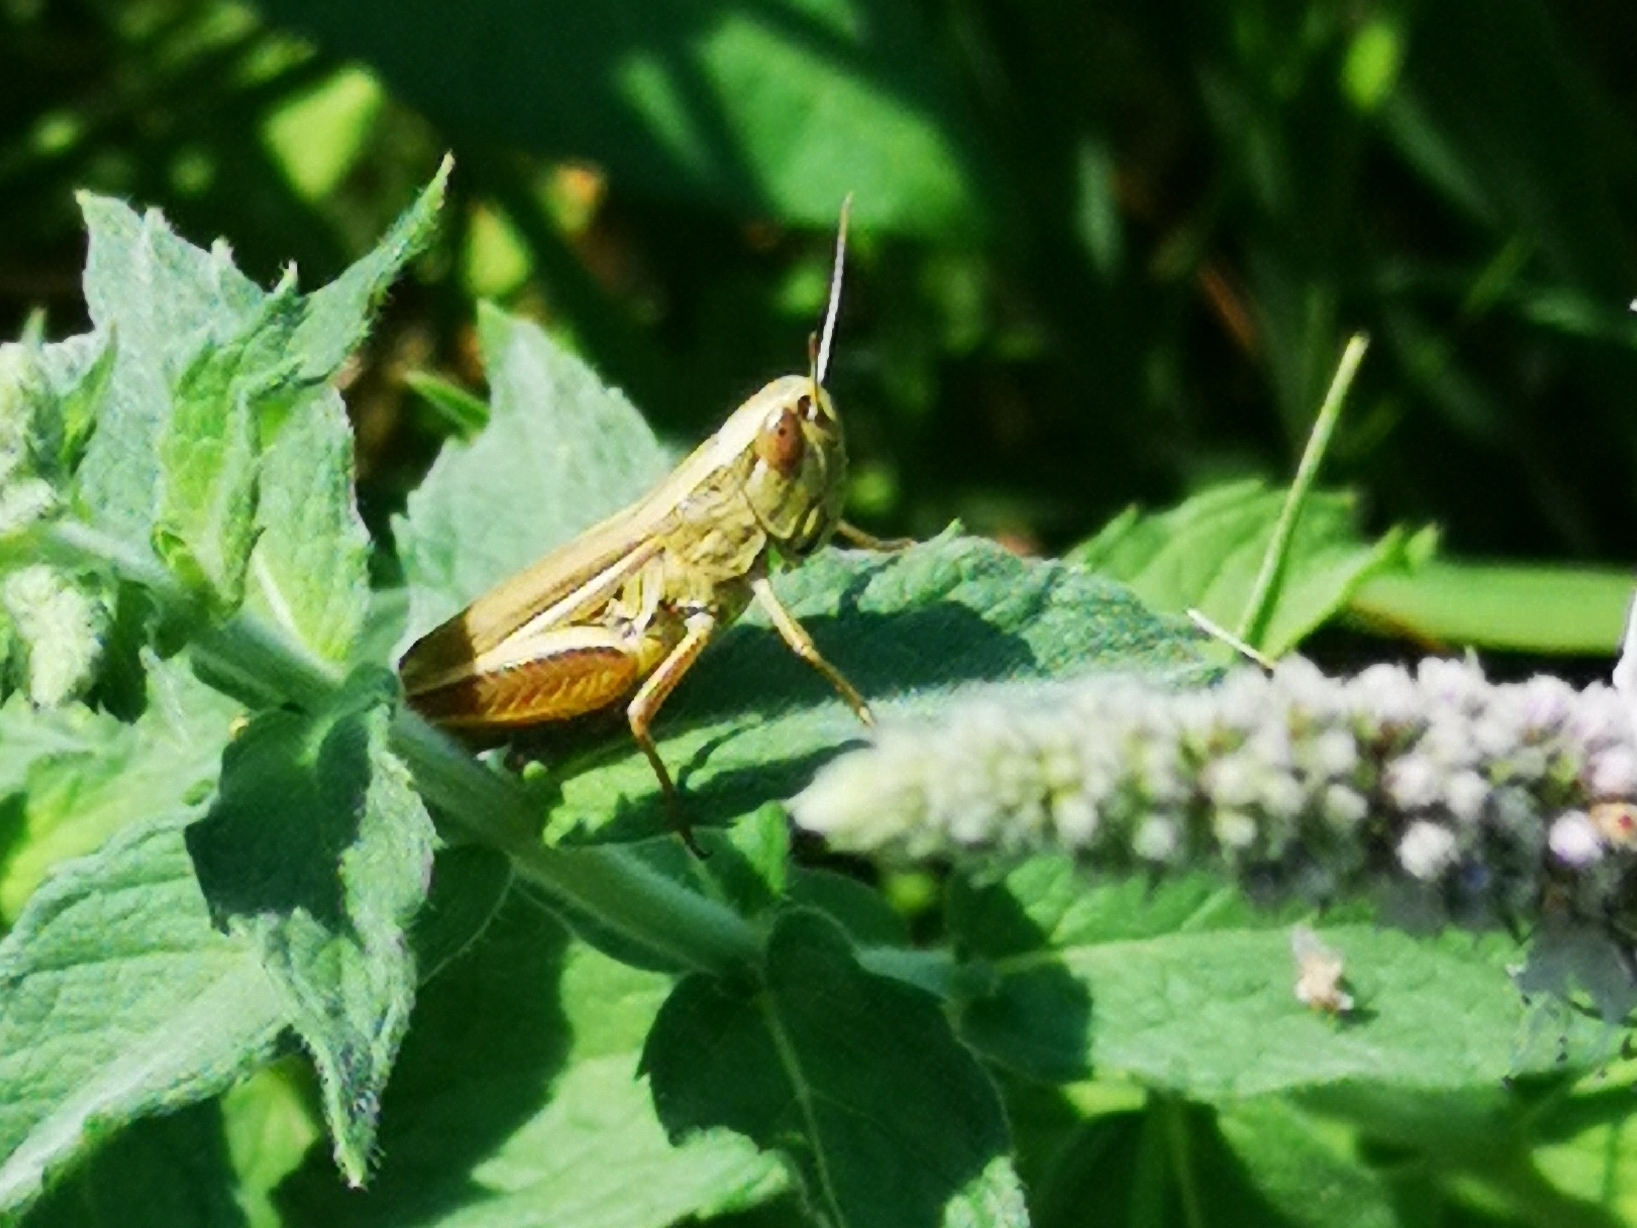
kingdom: Animalia
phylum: Arthropoda
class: Insecta
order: Orthoptera
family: Acrididae
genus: Euchorthippus
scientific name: Euchorthippus declivus
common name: Common straw grasshopper
